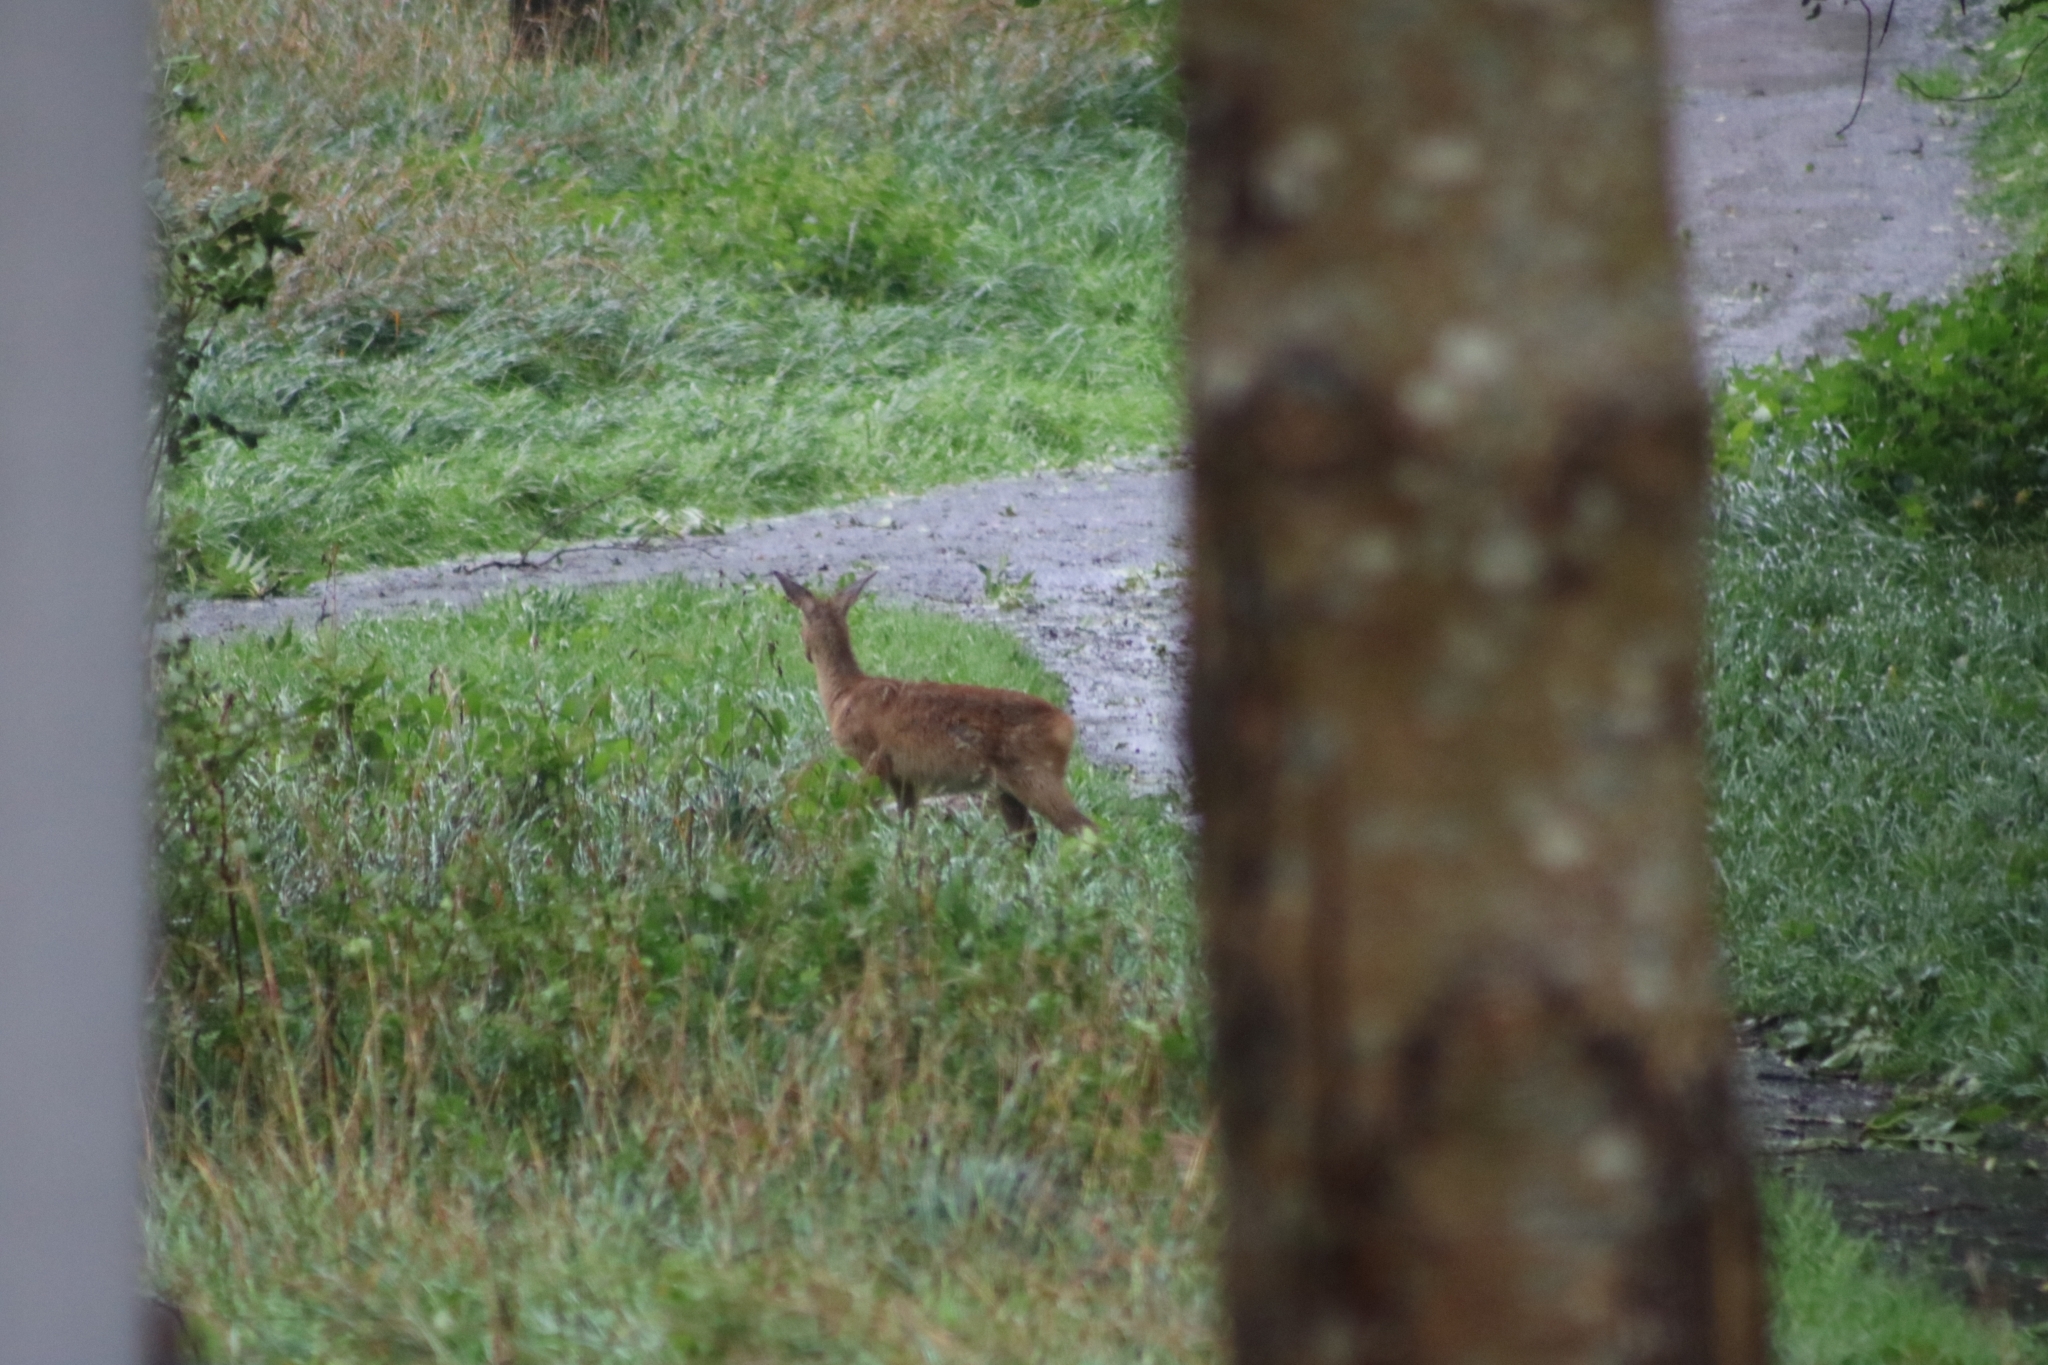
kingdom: Animalia
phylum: Chordata
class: Mammalia
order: Artiodactyla
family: Cervidae
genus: Capreolus
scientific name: Capreolus capreolus
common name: Western roe deer
